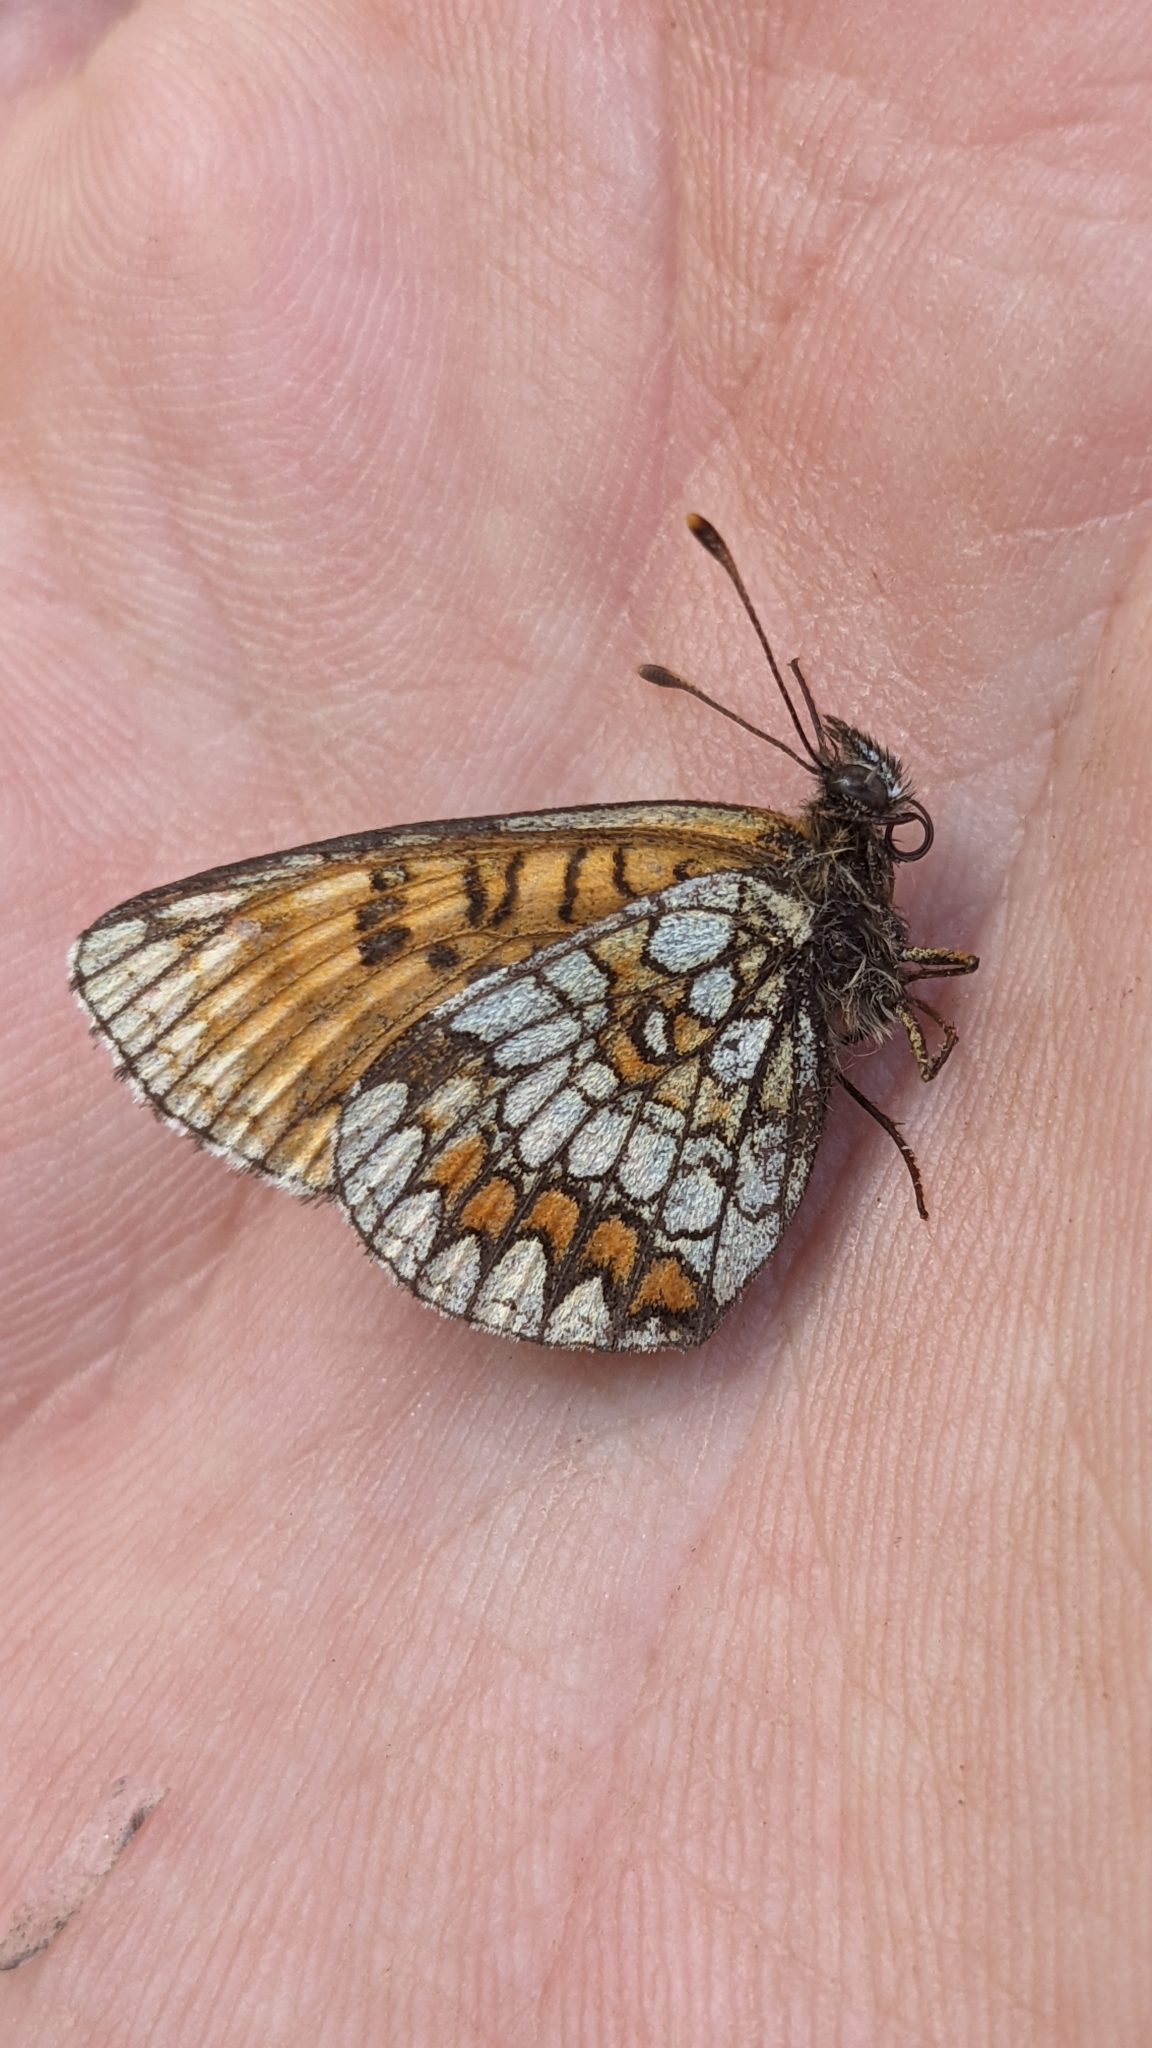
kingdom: Animalia
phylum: Arthropoda
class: Insecta
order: Lepidoptera
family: Nymphalidae
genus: Melitaea
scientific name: Melitaea athalia
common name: Heath fritillary
